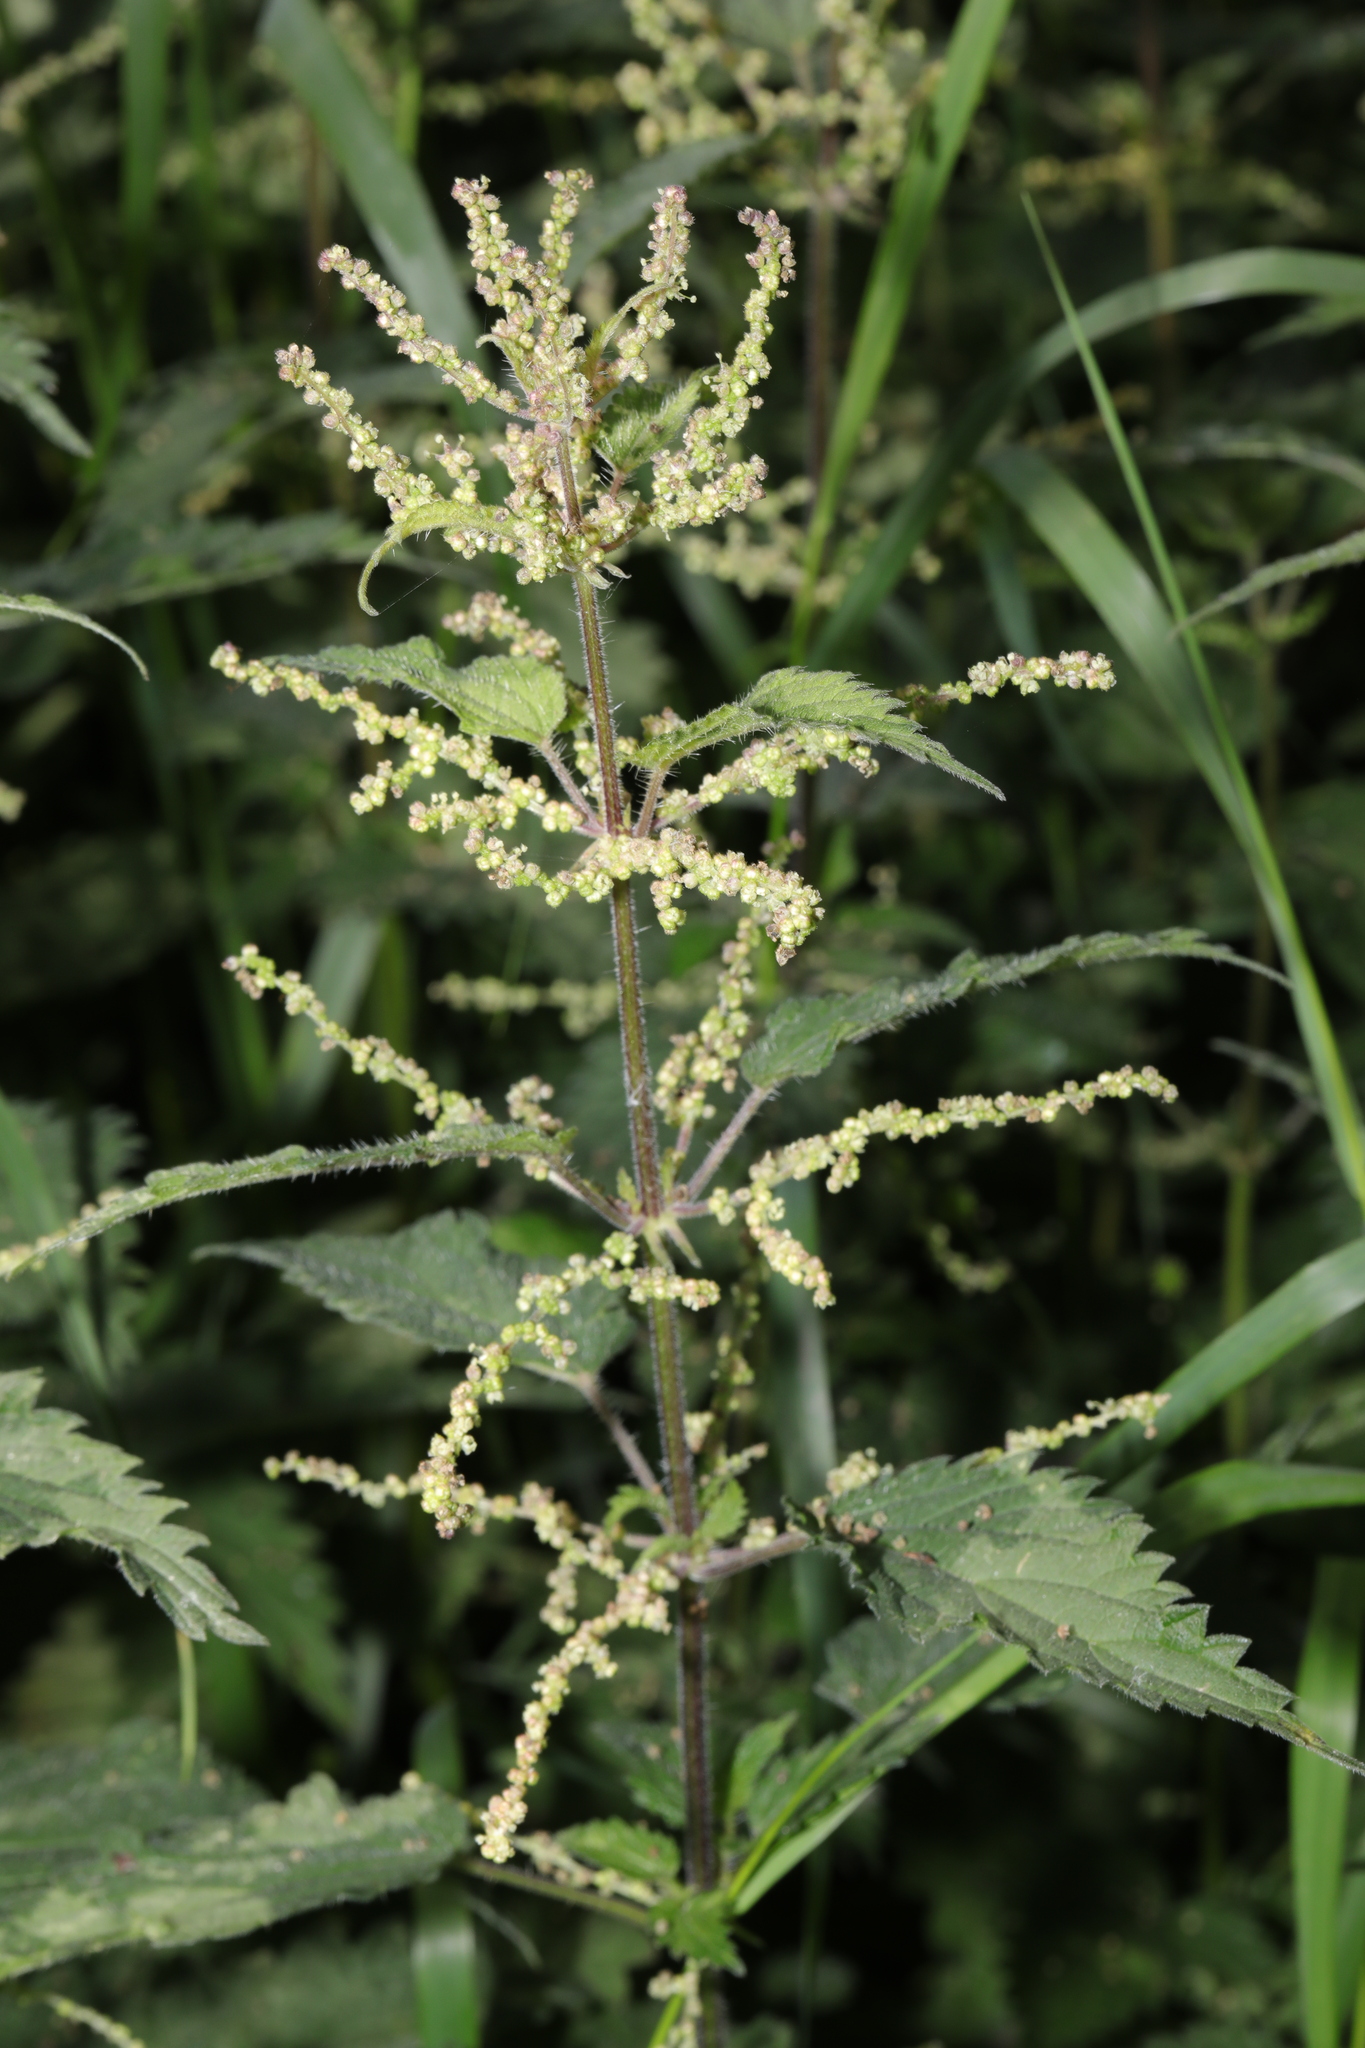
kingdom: Plantae
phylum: Tracheophyta
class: Magnoliopsida
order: Rosales
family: Urticaceae
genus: Urtica
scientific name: Urtica dioica
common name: Common nettle
